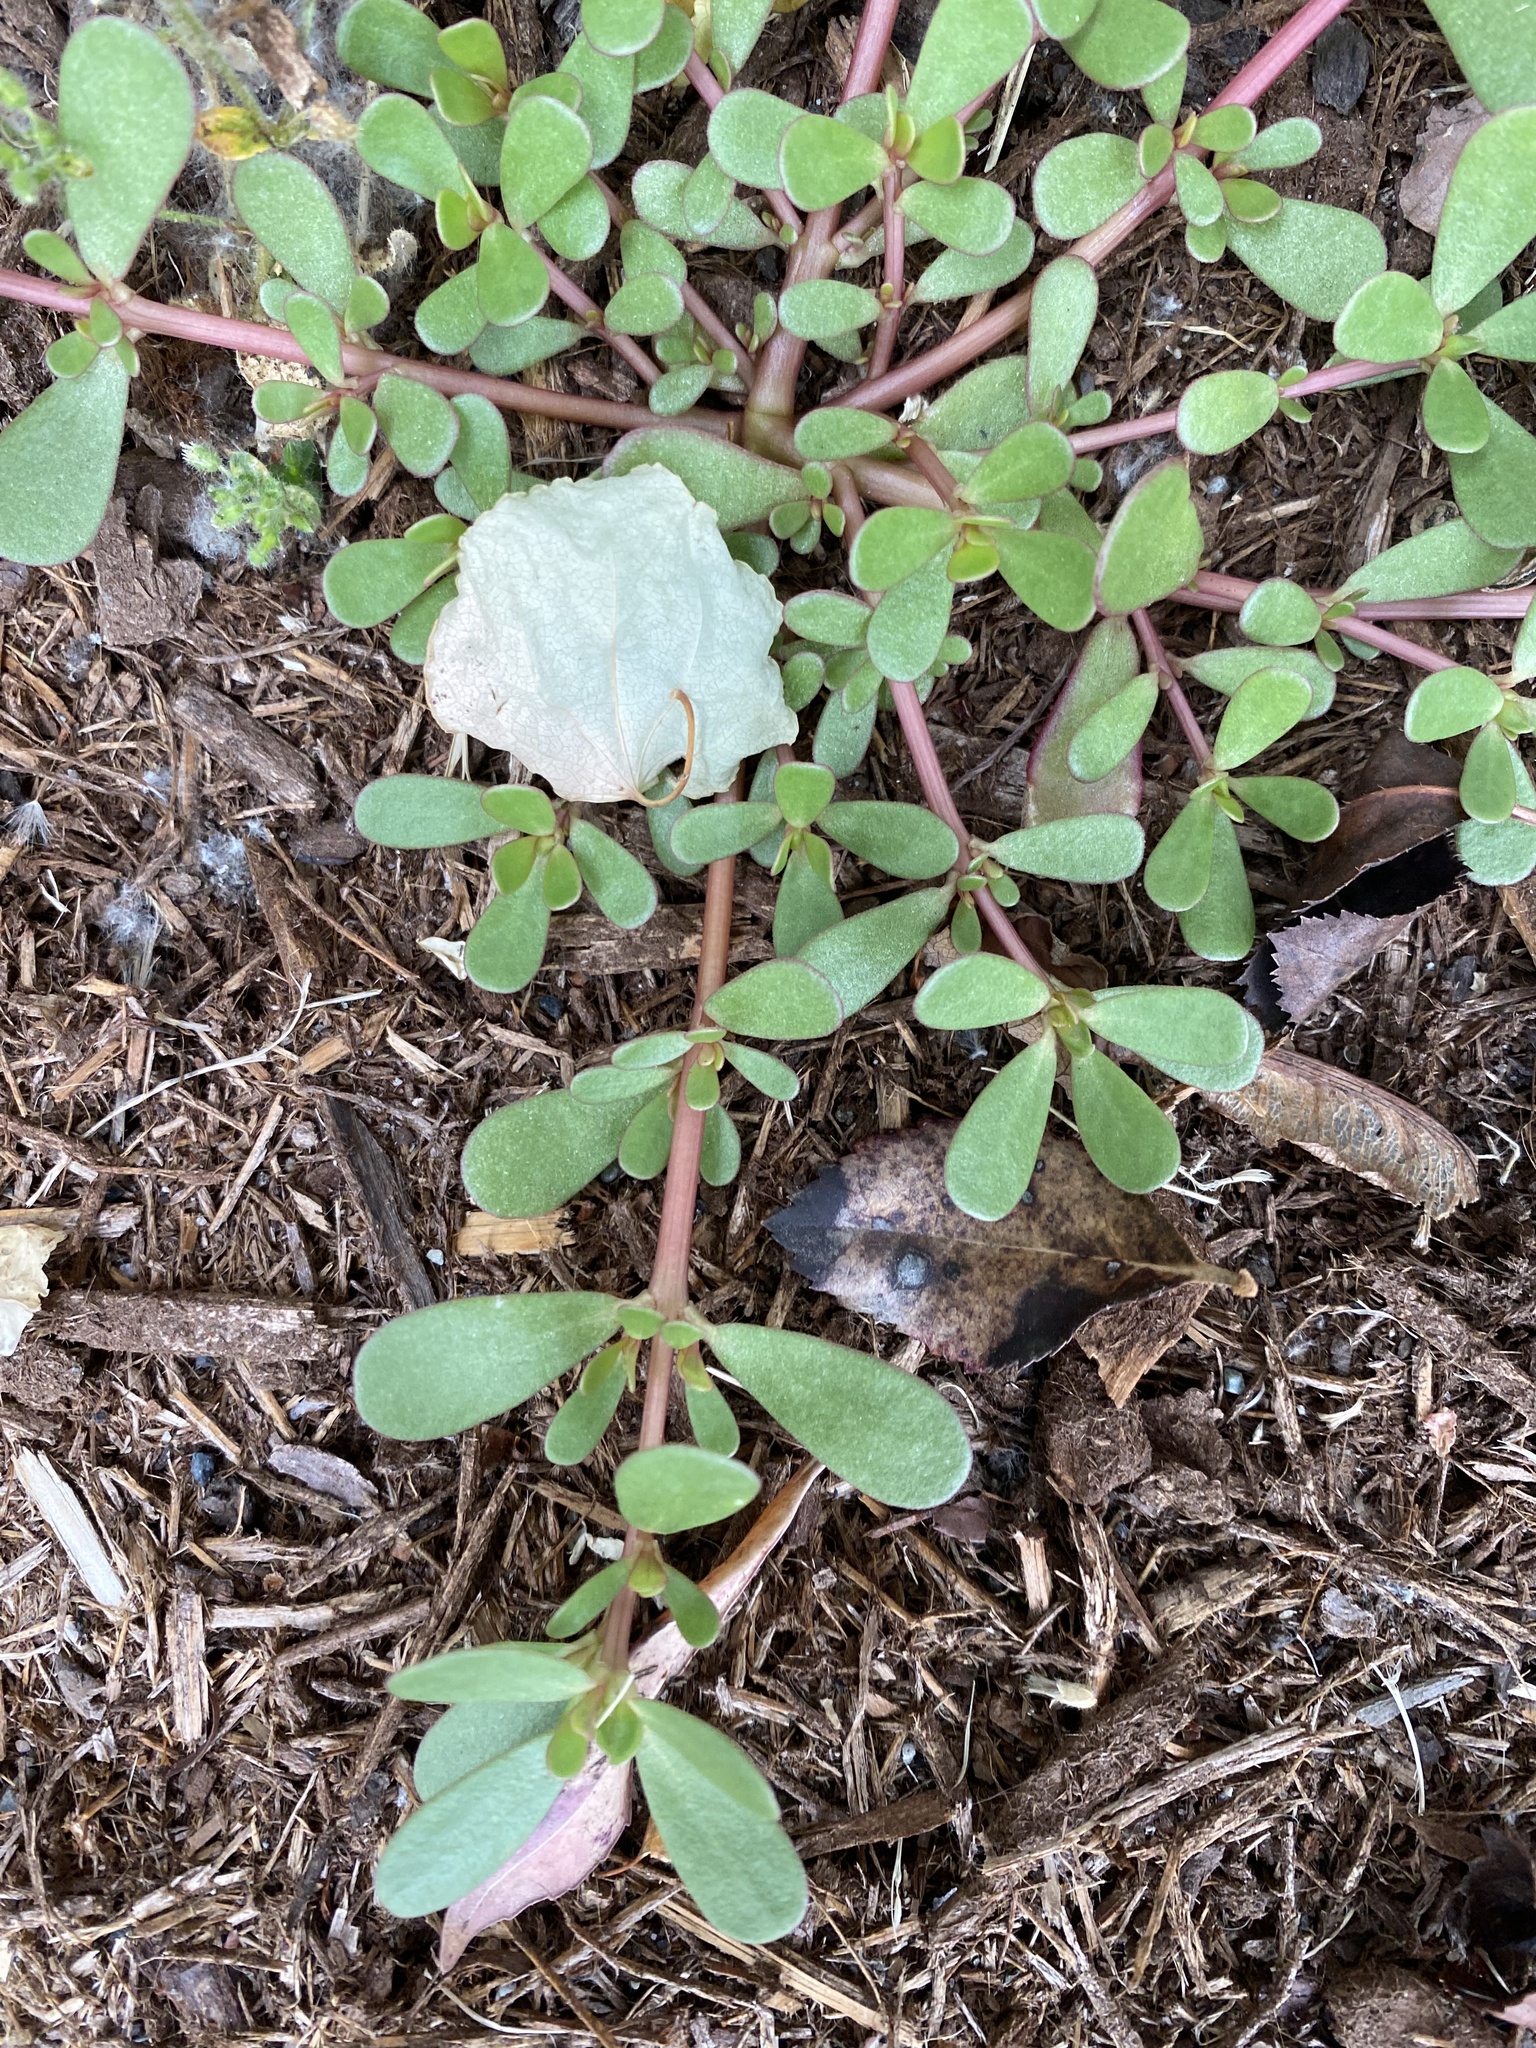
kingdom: Plantae
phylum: Tracheophyta
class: Magnoliopsida
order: Caryophyllales
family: Portulacaceae
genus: Portulaca
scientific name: Portulaca oleracea
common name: Common purslane
